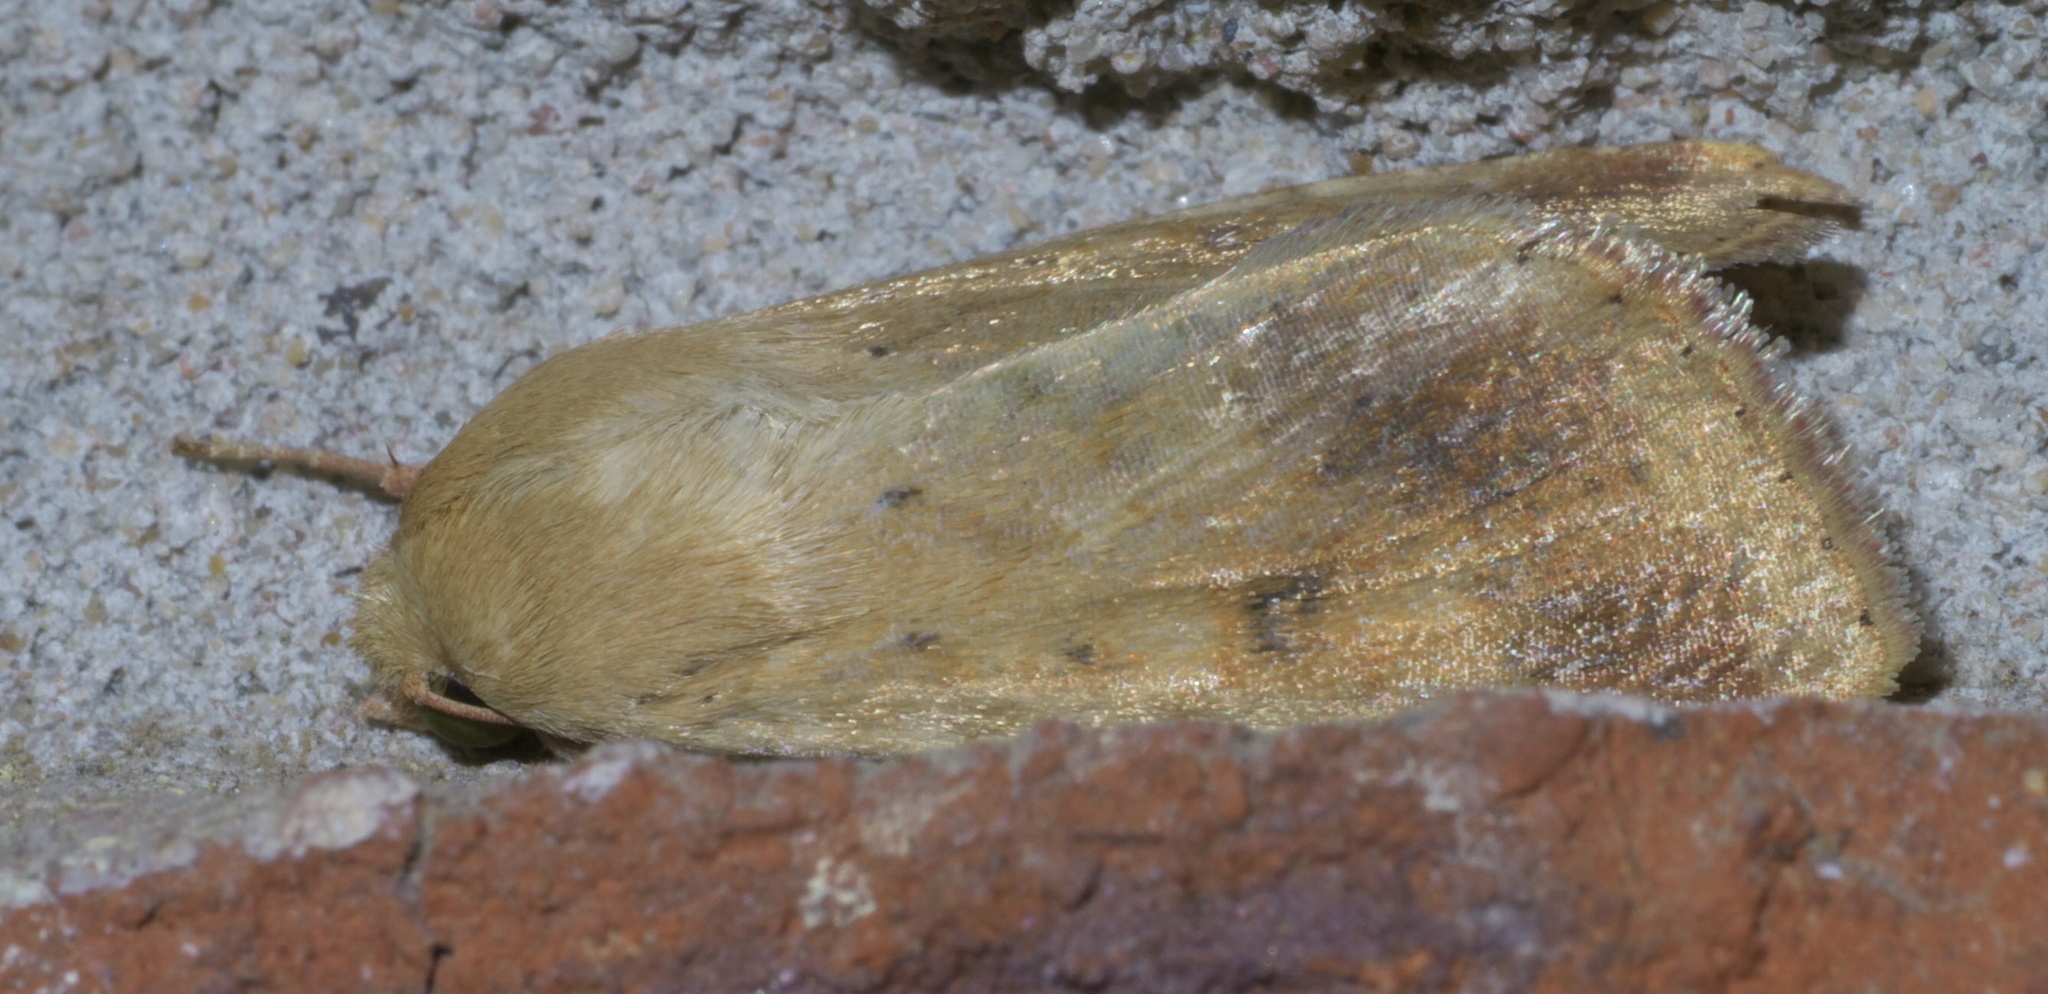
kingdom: Animalia
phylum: Arthropoda
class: Insecta
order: Lepidoptera
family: Noctuidae
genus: Helicoverpa
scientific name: Helicoverpa zea
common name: Bollworm
